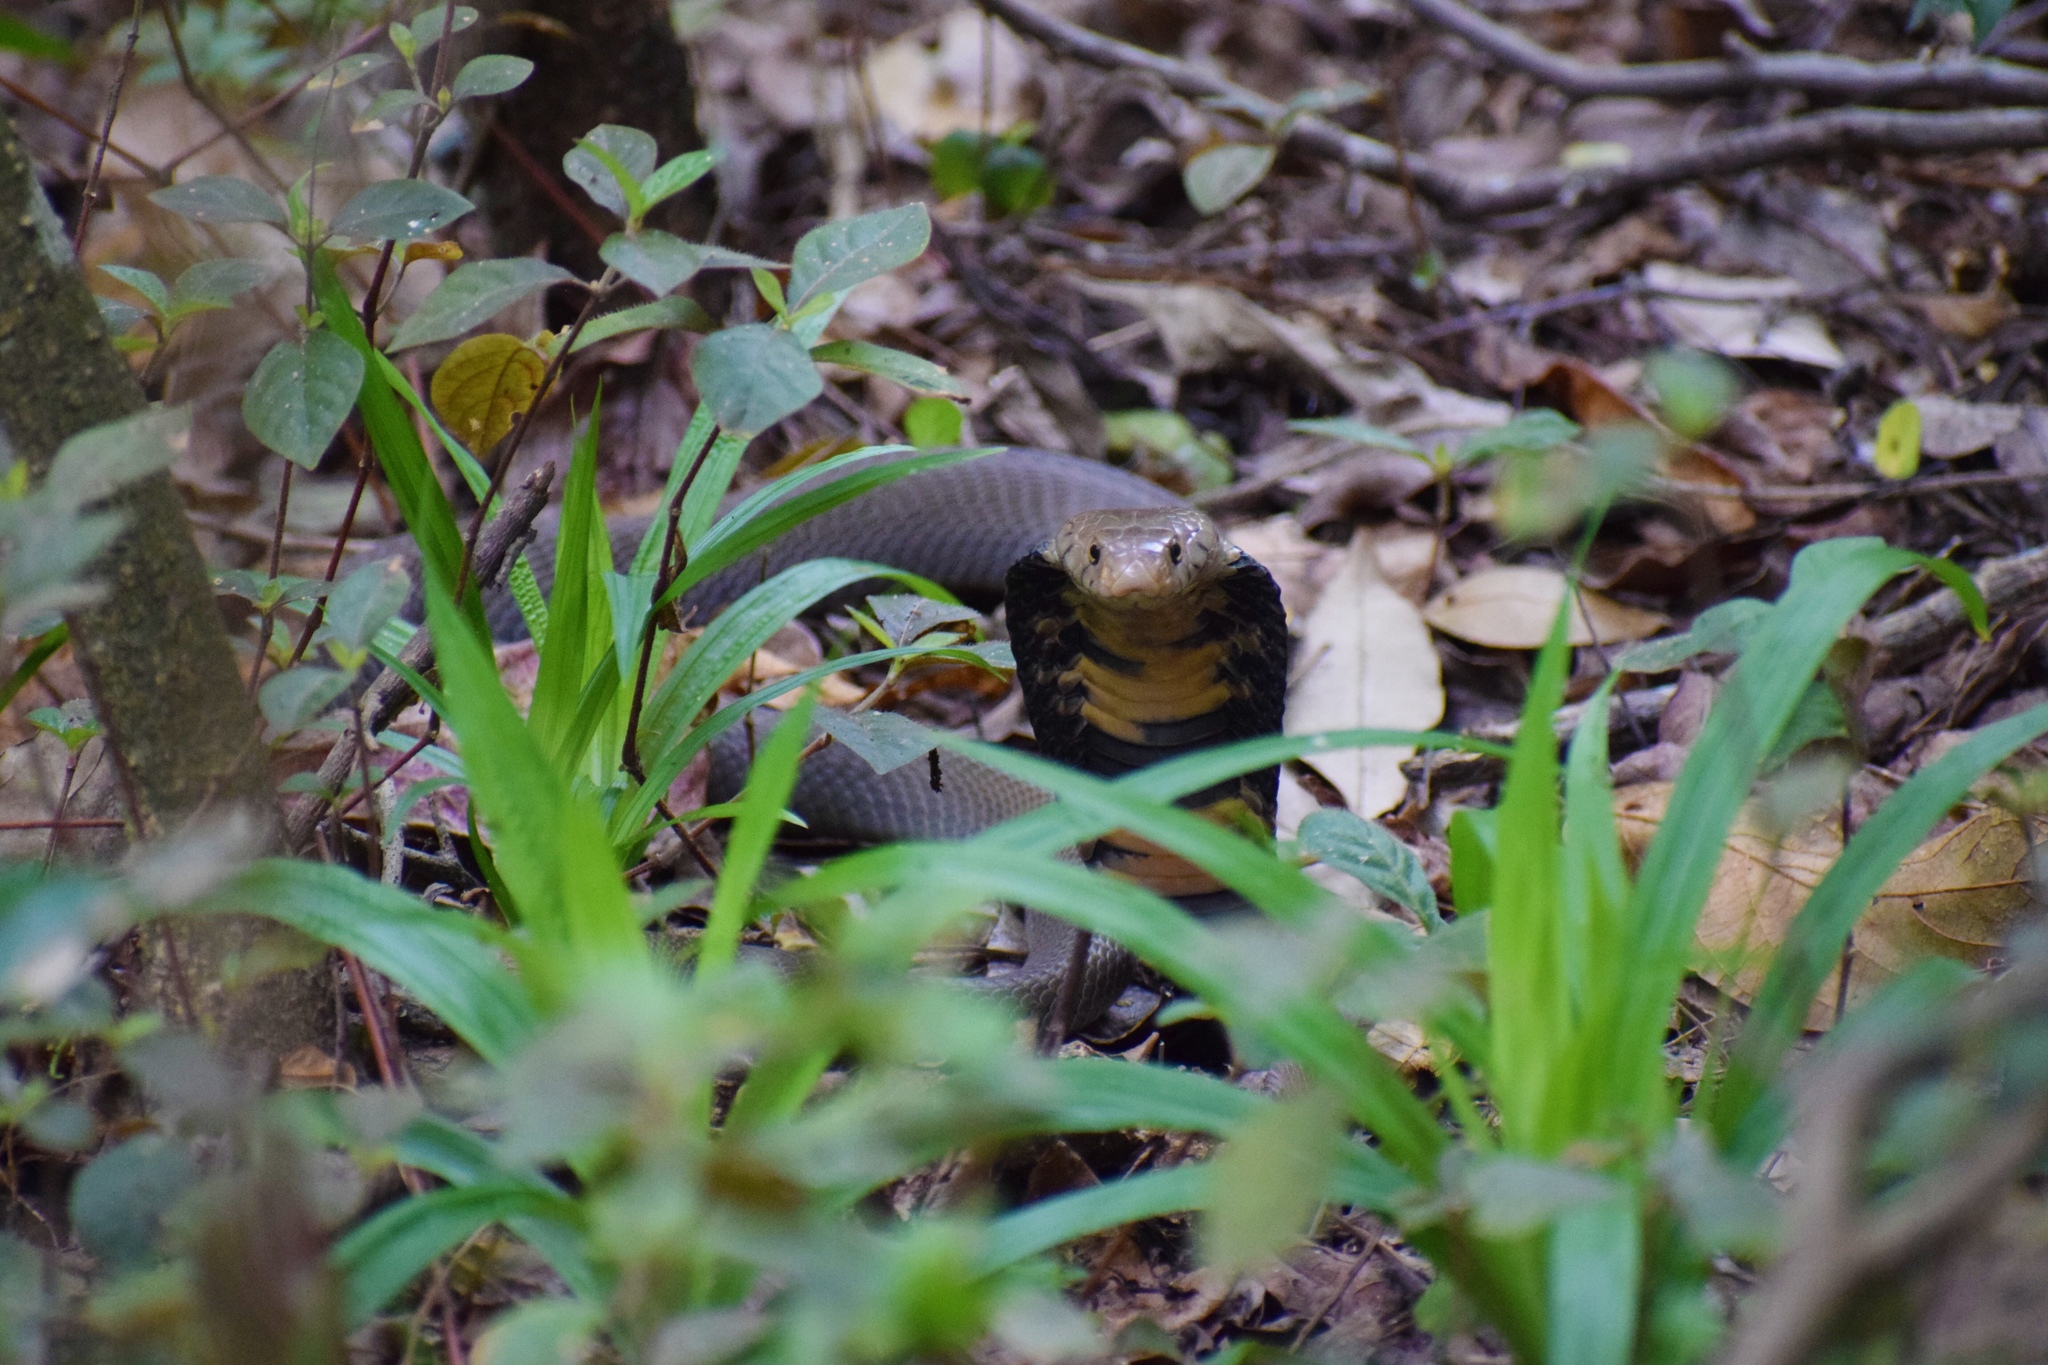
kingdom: Animalia
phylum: Chordata
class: Squamata
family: Elapidae
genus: Naja
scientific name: Naja mossambica
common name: Mozambique spitting cobra
